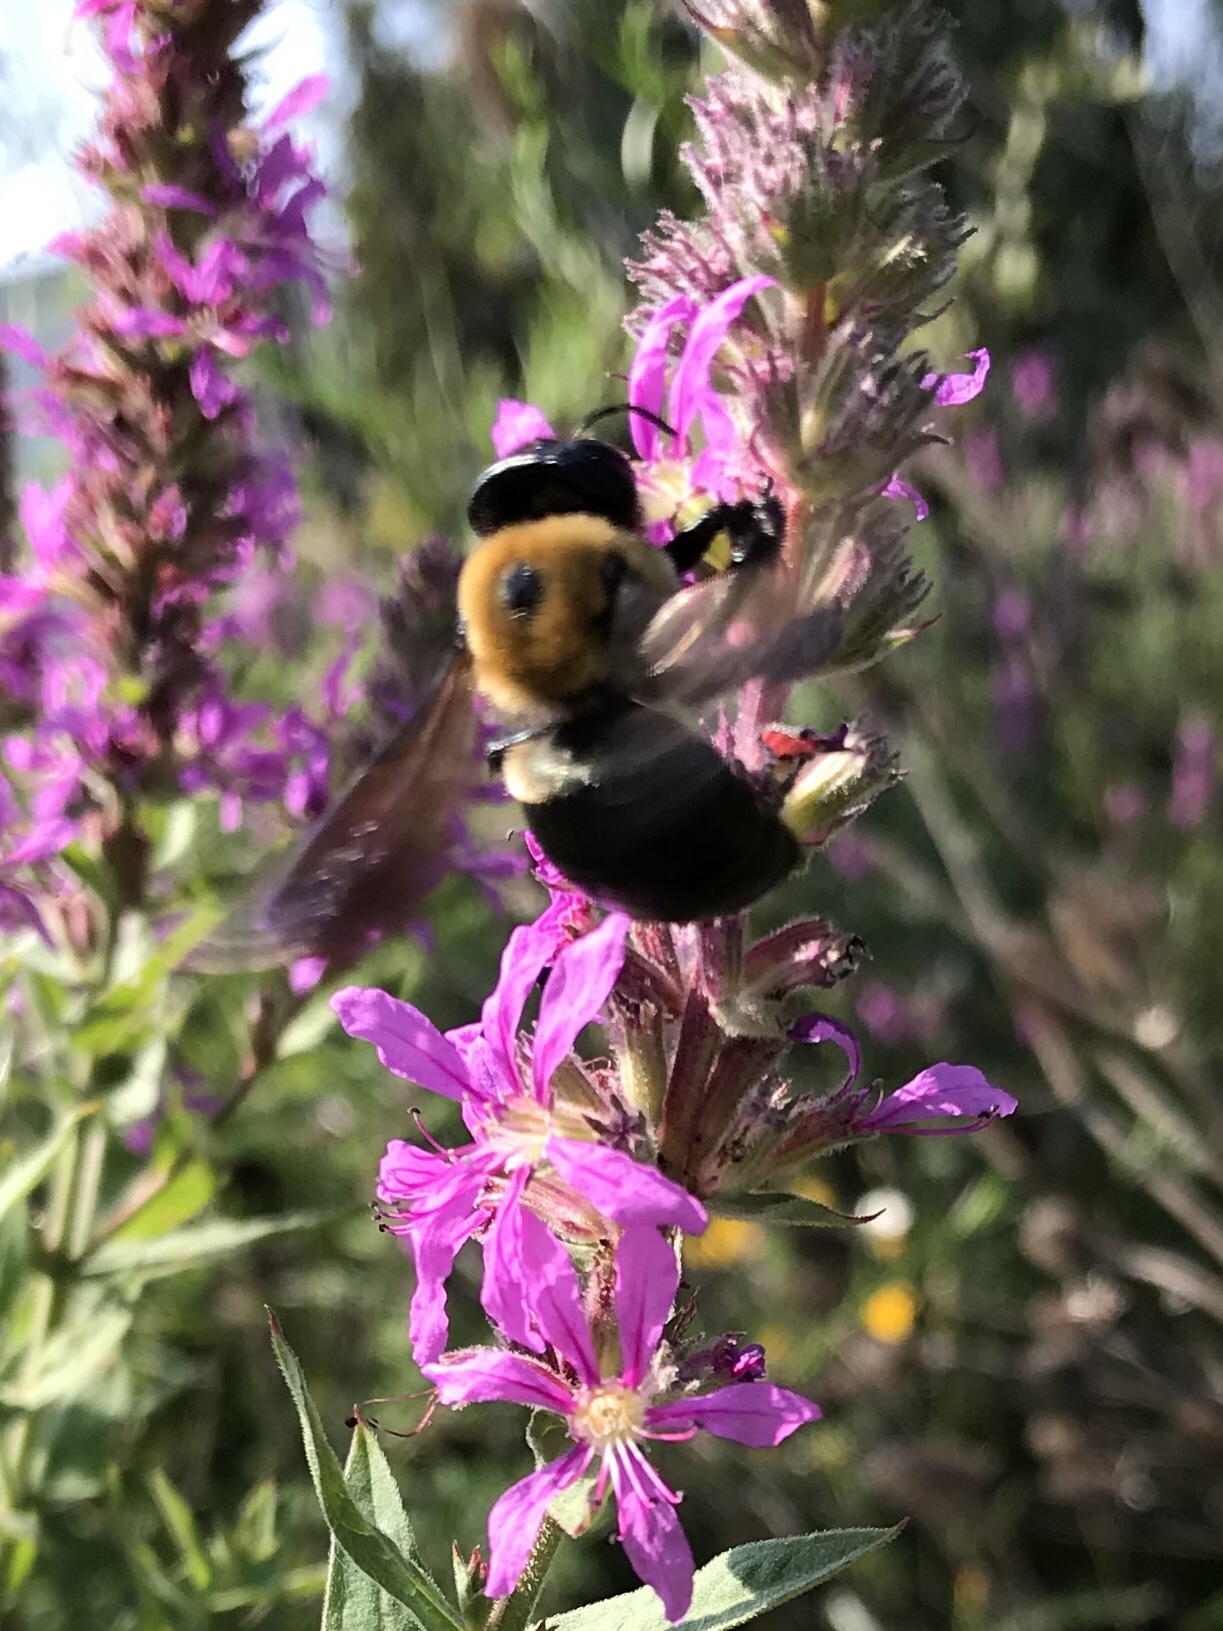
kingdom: Animalia
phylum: Arthropoda
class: Insecta
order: Hymenoptera
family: Apidae
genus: Xylocopa
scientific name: Xylocopa virginica
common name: Carpenter bee
